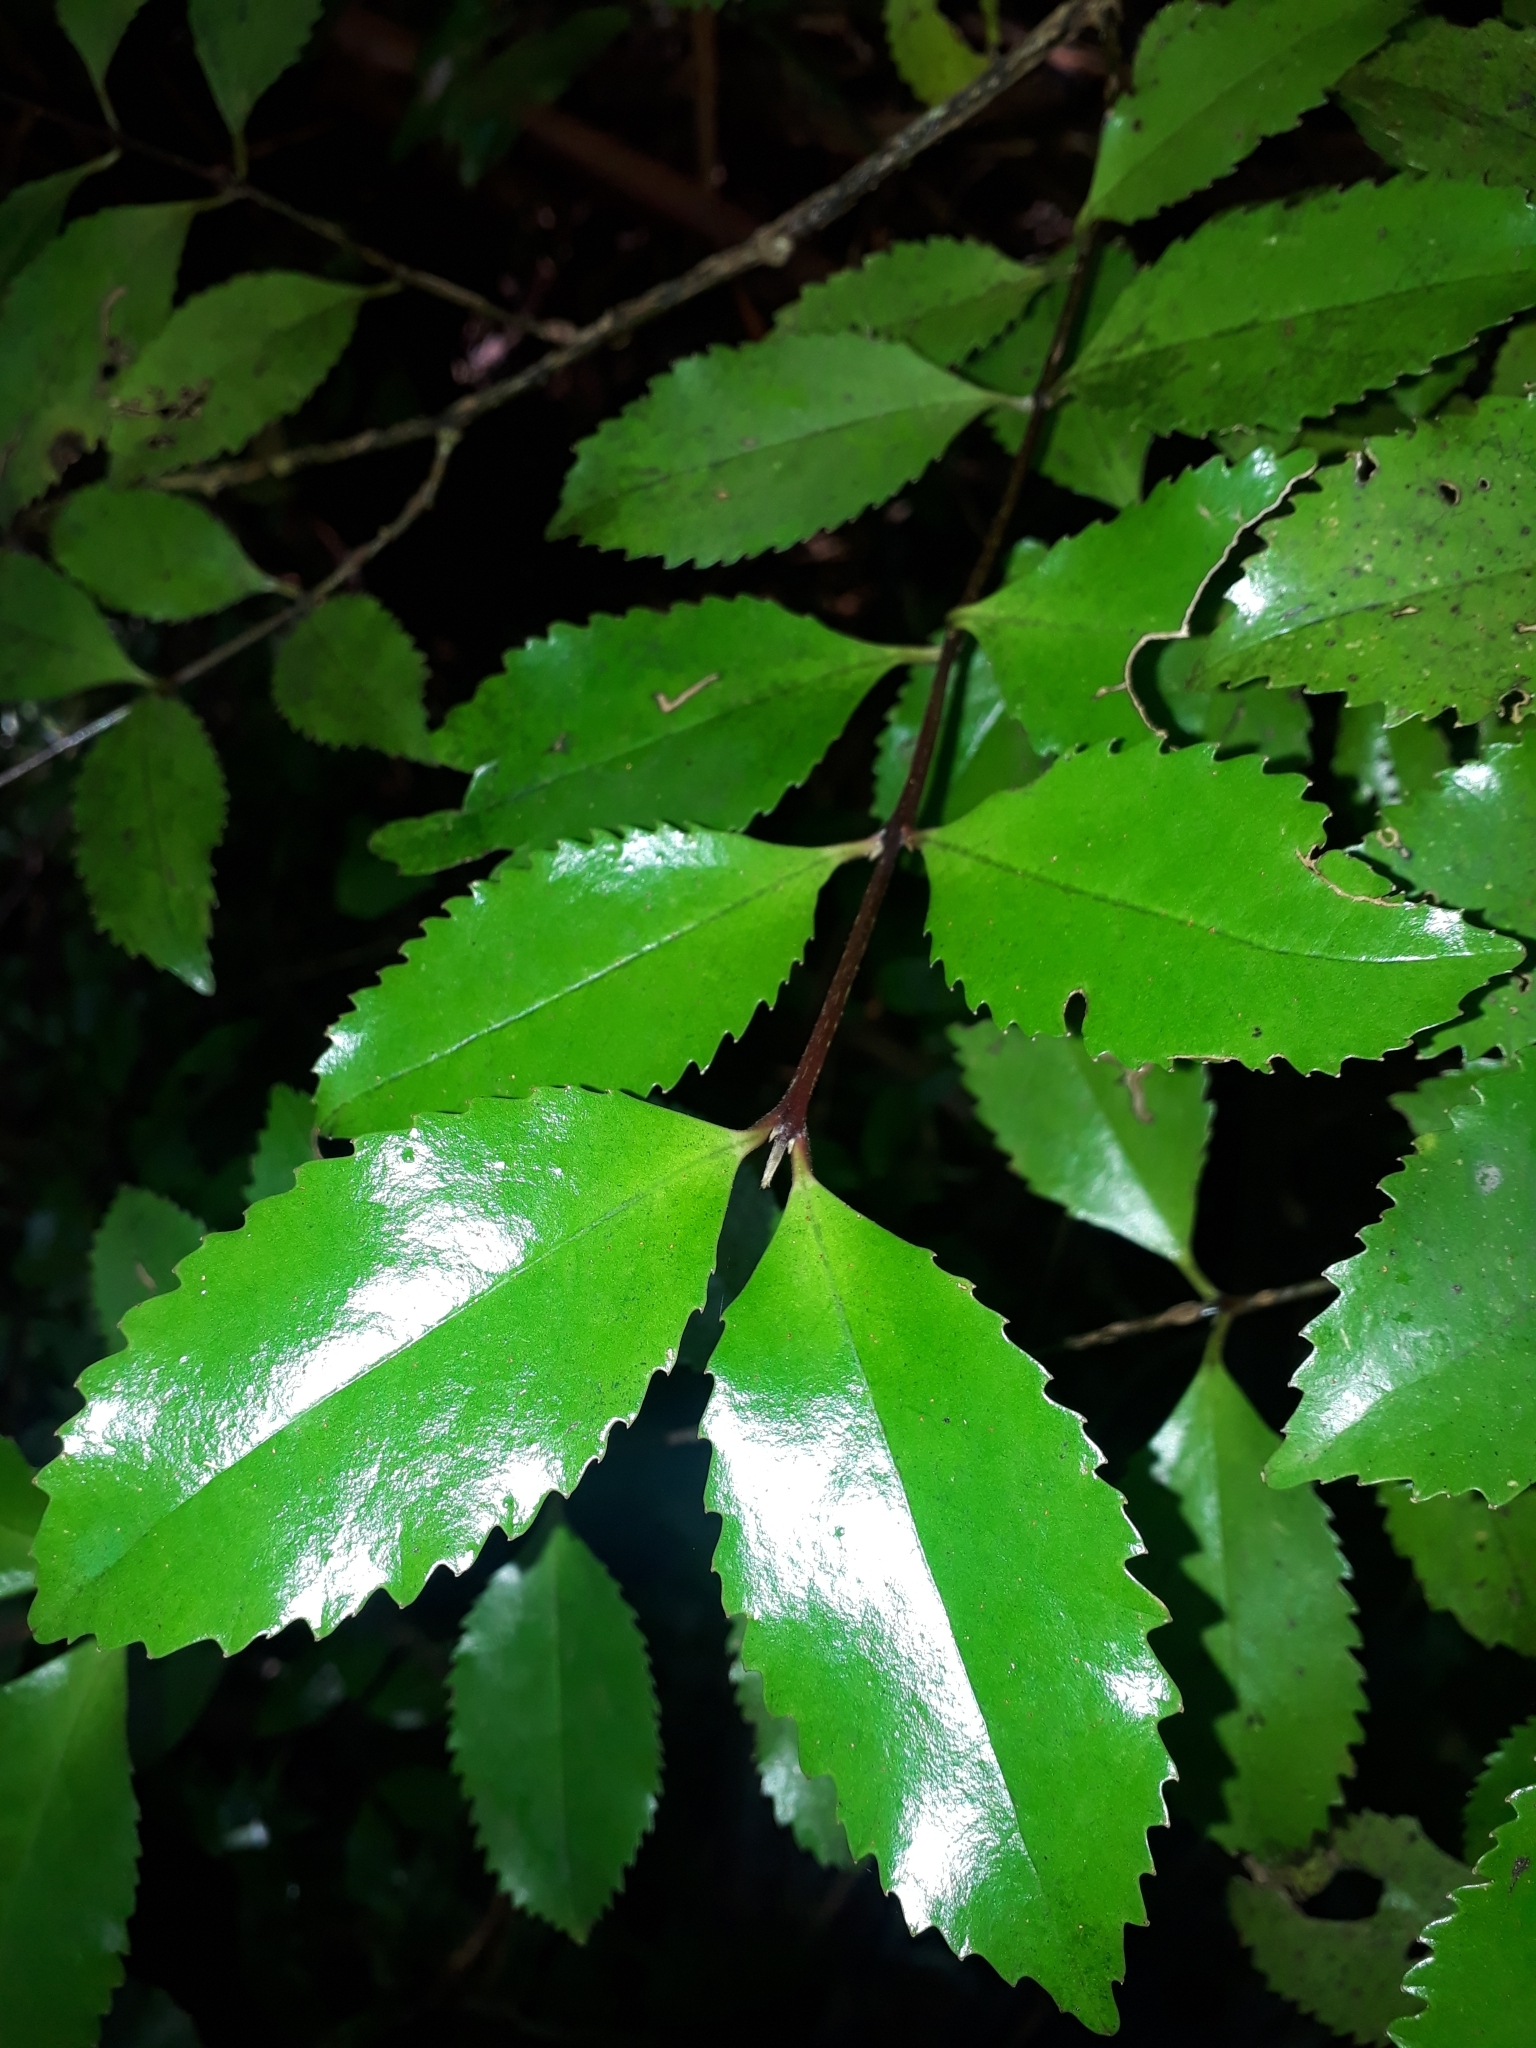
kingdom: Plantae
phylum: Tracheophyta
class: Magnoliopsida
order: Laurales
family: Atherospermataceae
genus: Laurelia
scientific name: Laurelia novae-zelandiae
